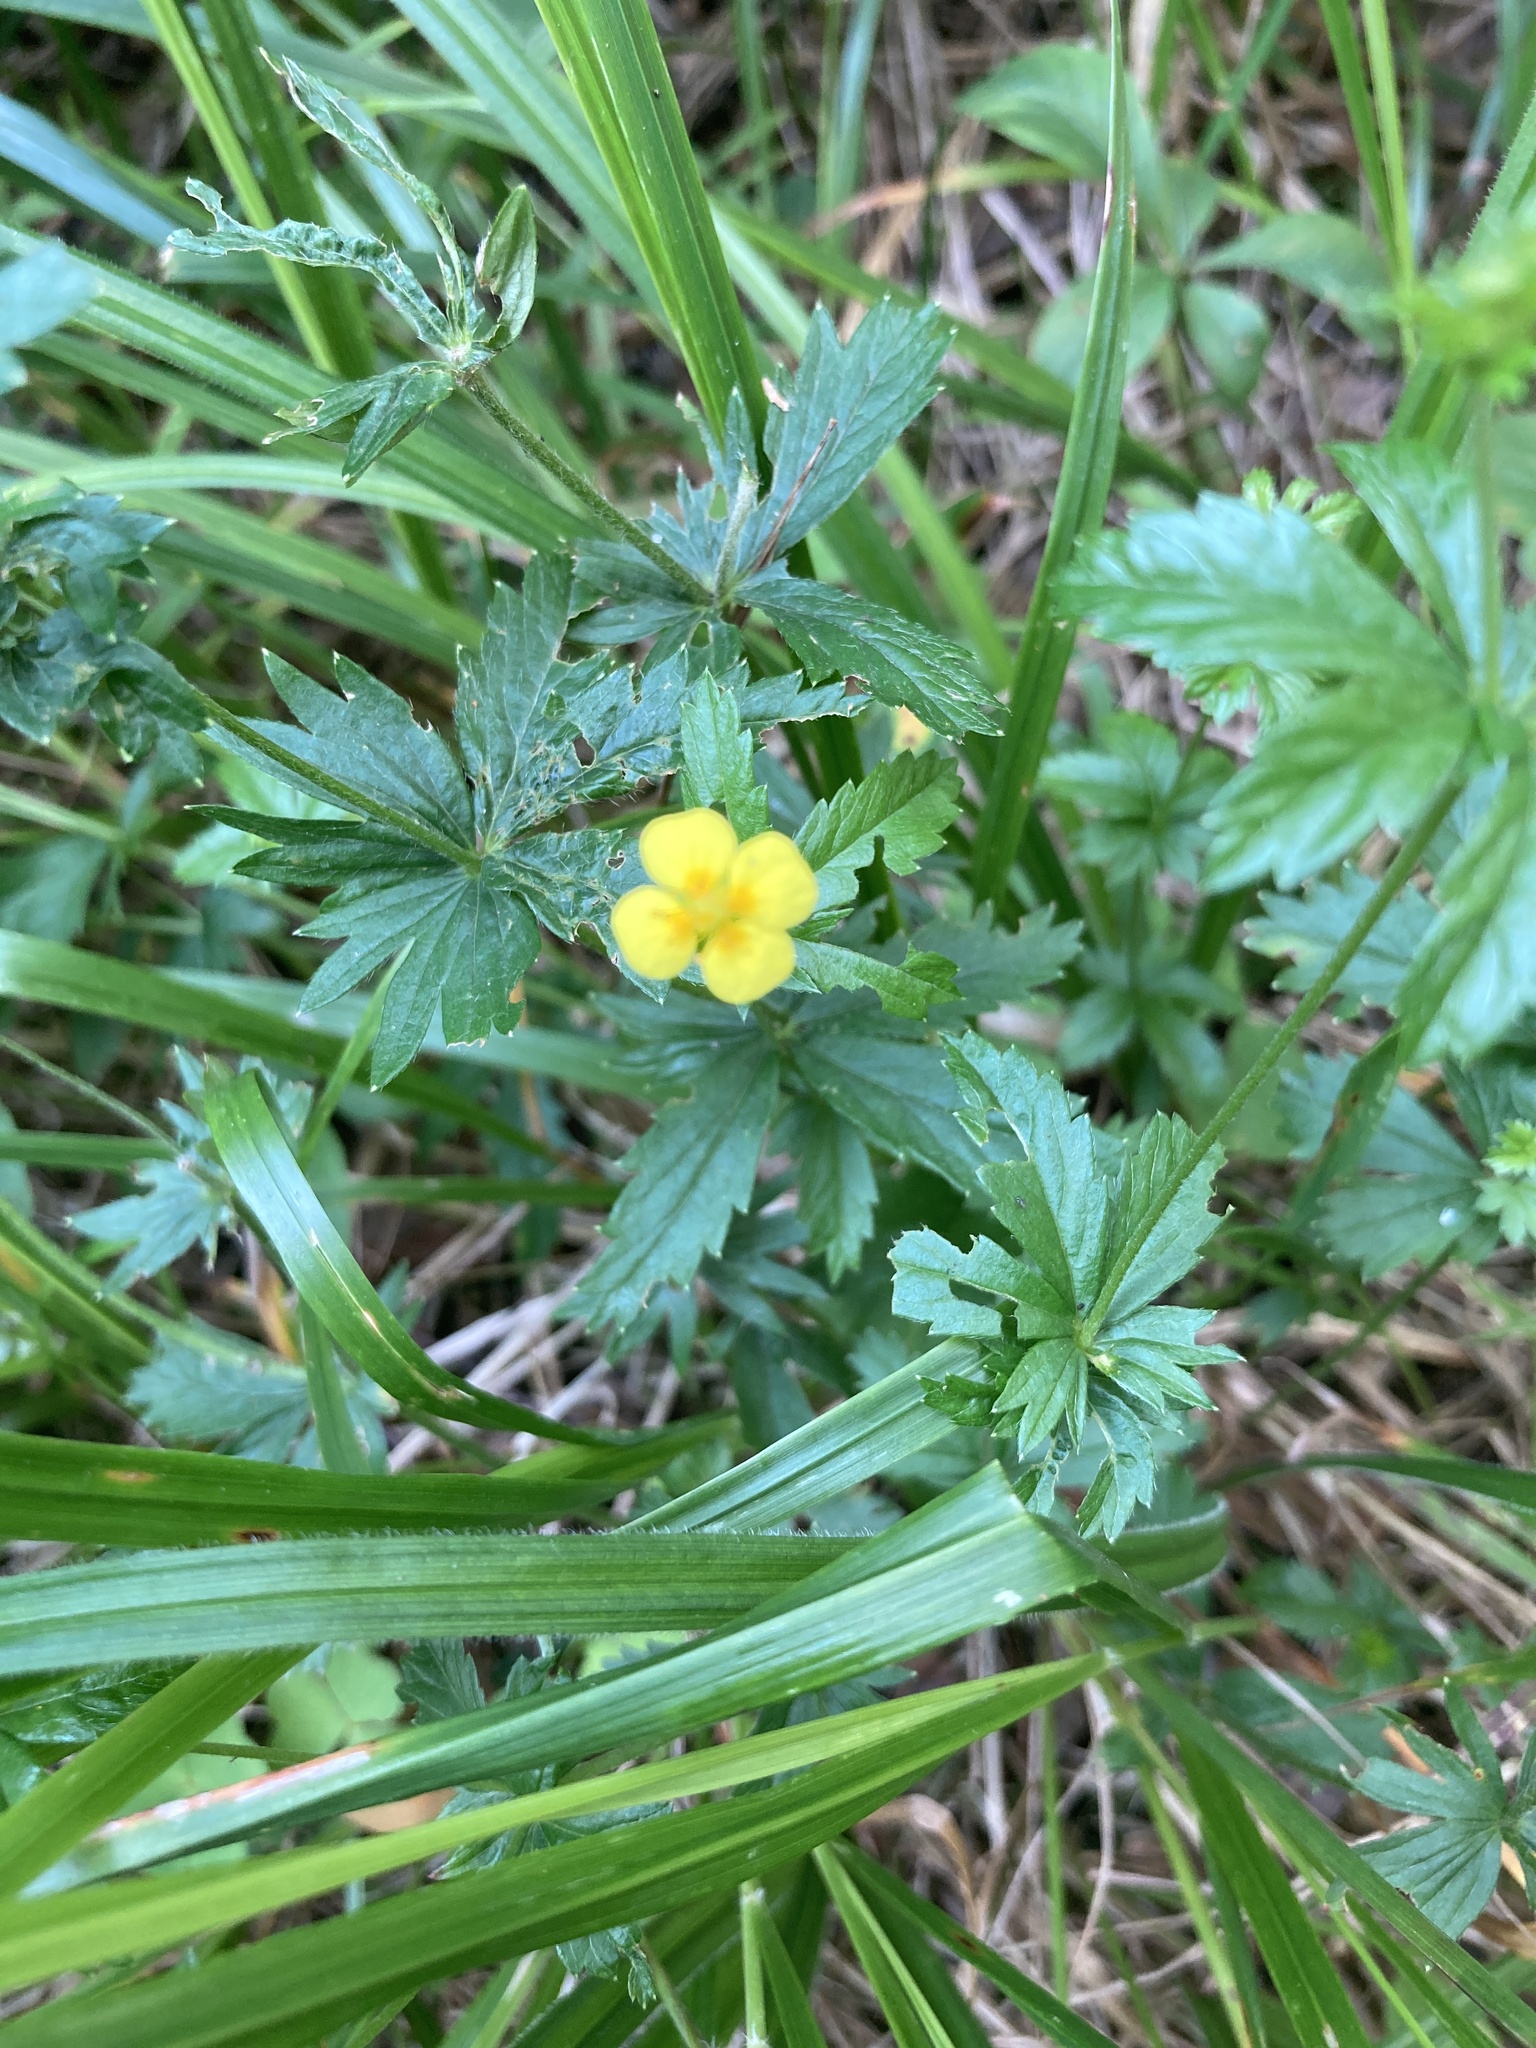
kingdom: Plantae
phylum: Tracheophyta
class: Magnoliopsida
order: Rosales
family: Rosaceae
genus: Potentilla
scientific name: Potentilla erecta
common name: Tormentil
